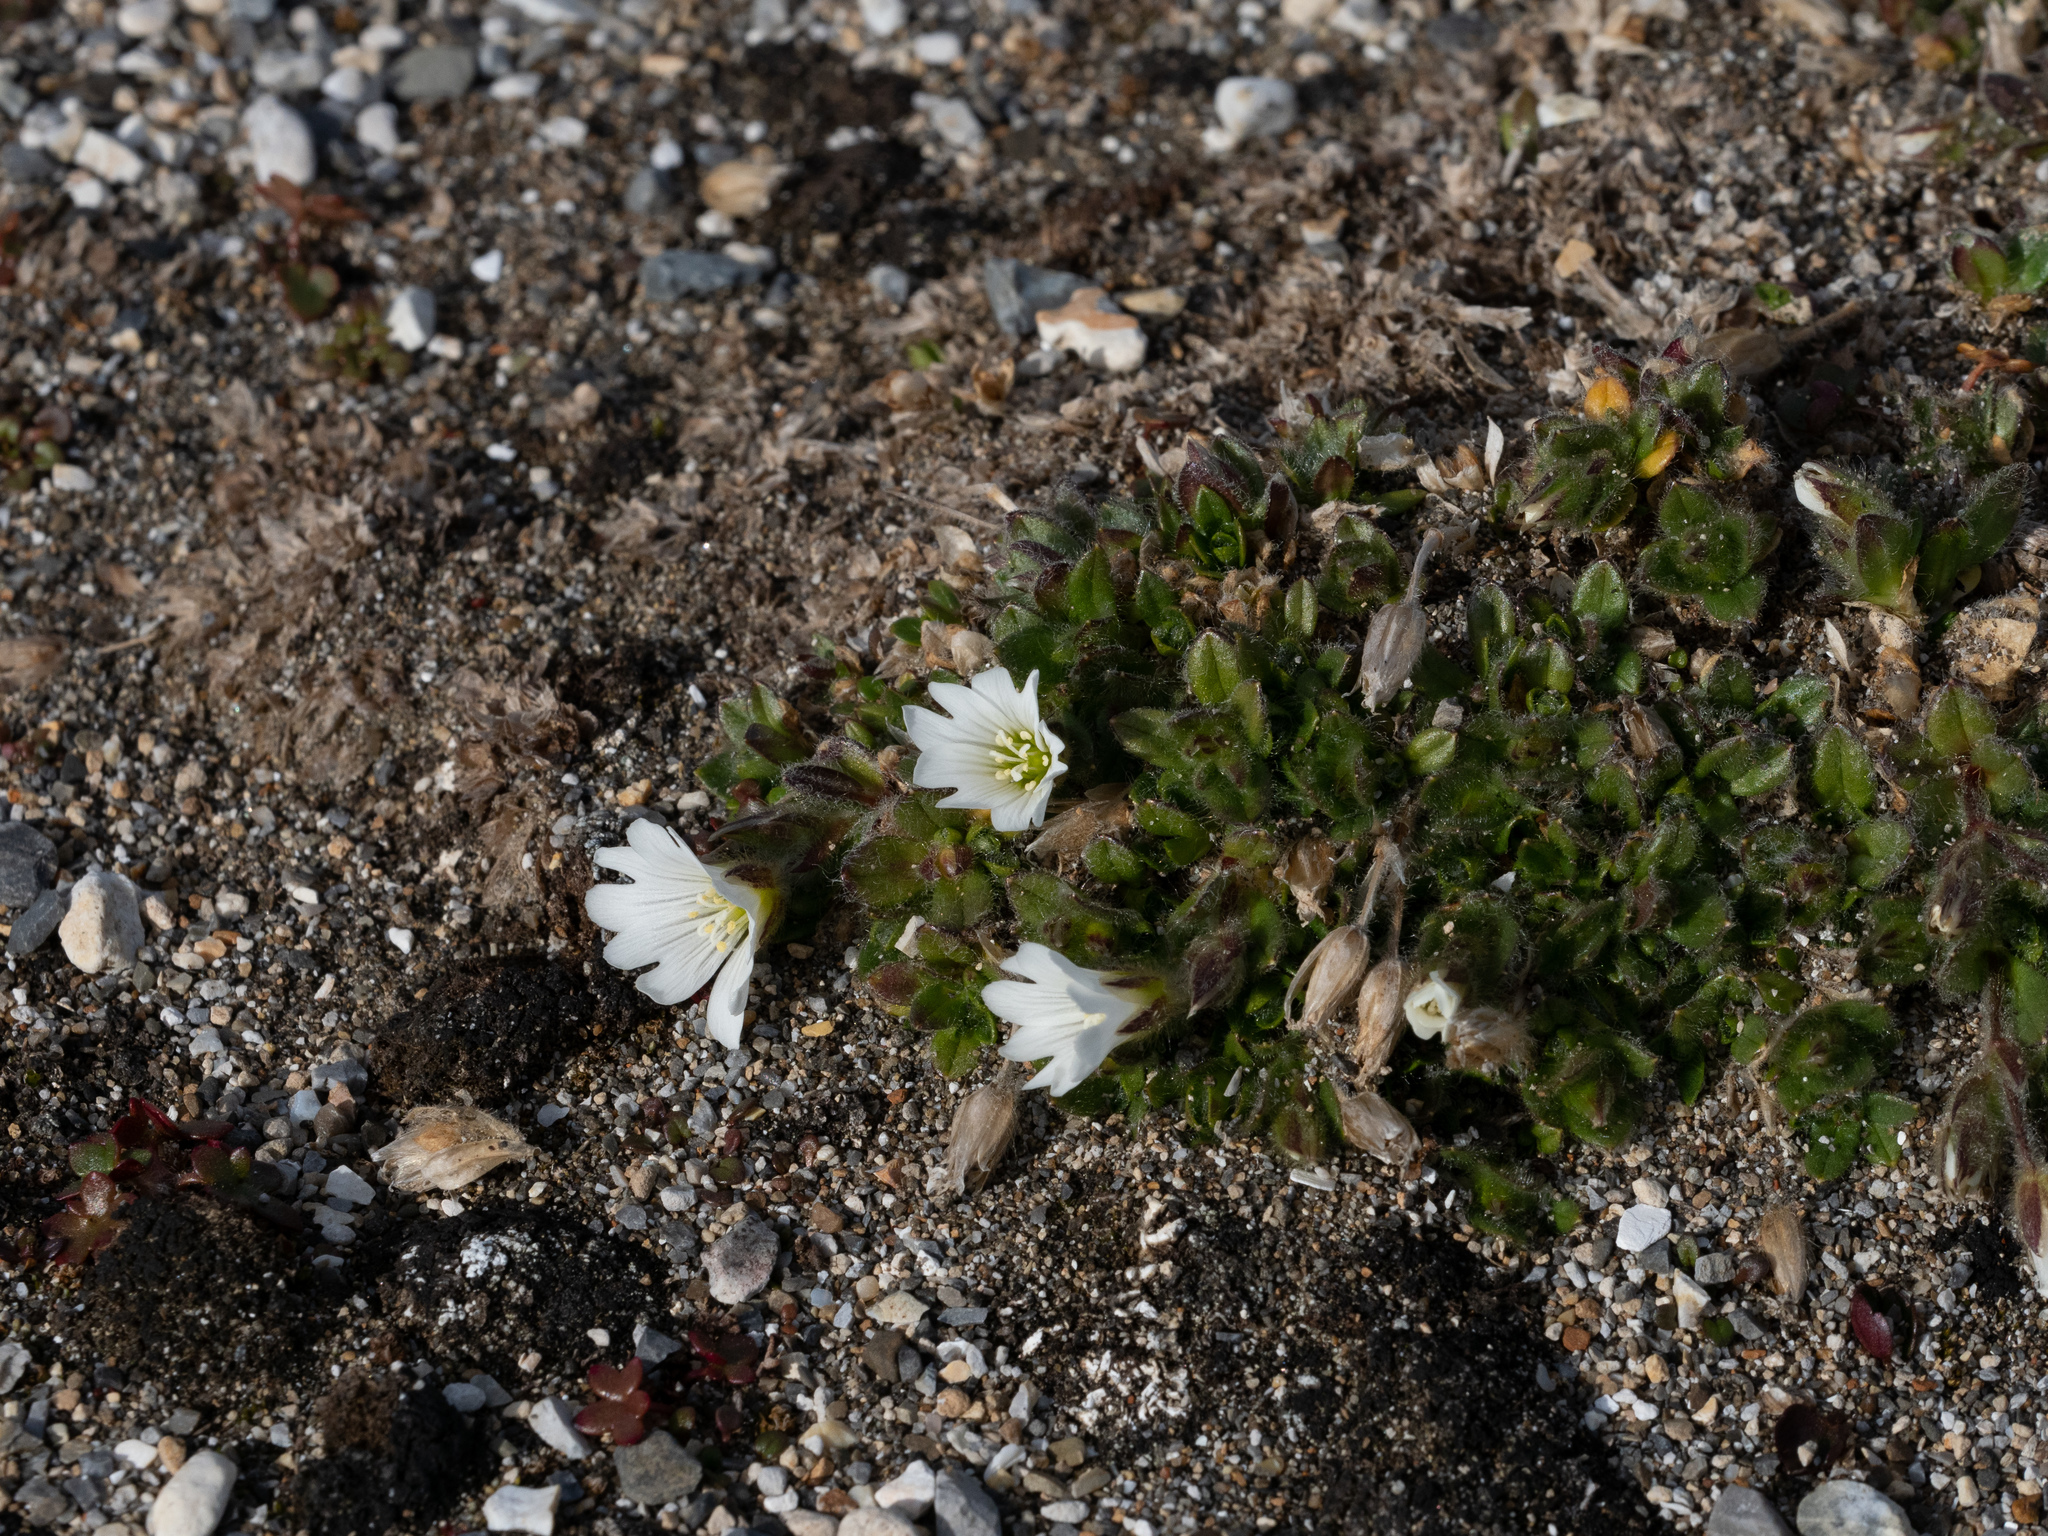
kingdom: Plantae
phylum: Tracheophyta
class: Magnoliopsida
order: Caryophyllales
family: Caryophyllaceae
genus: Cerastium
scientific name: Cerastium arcticum
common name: Arctic mouse-ear
